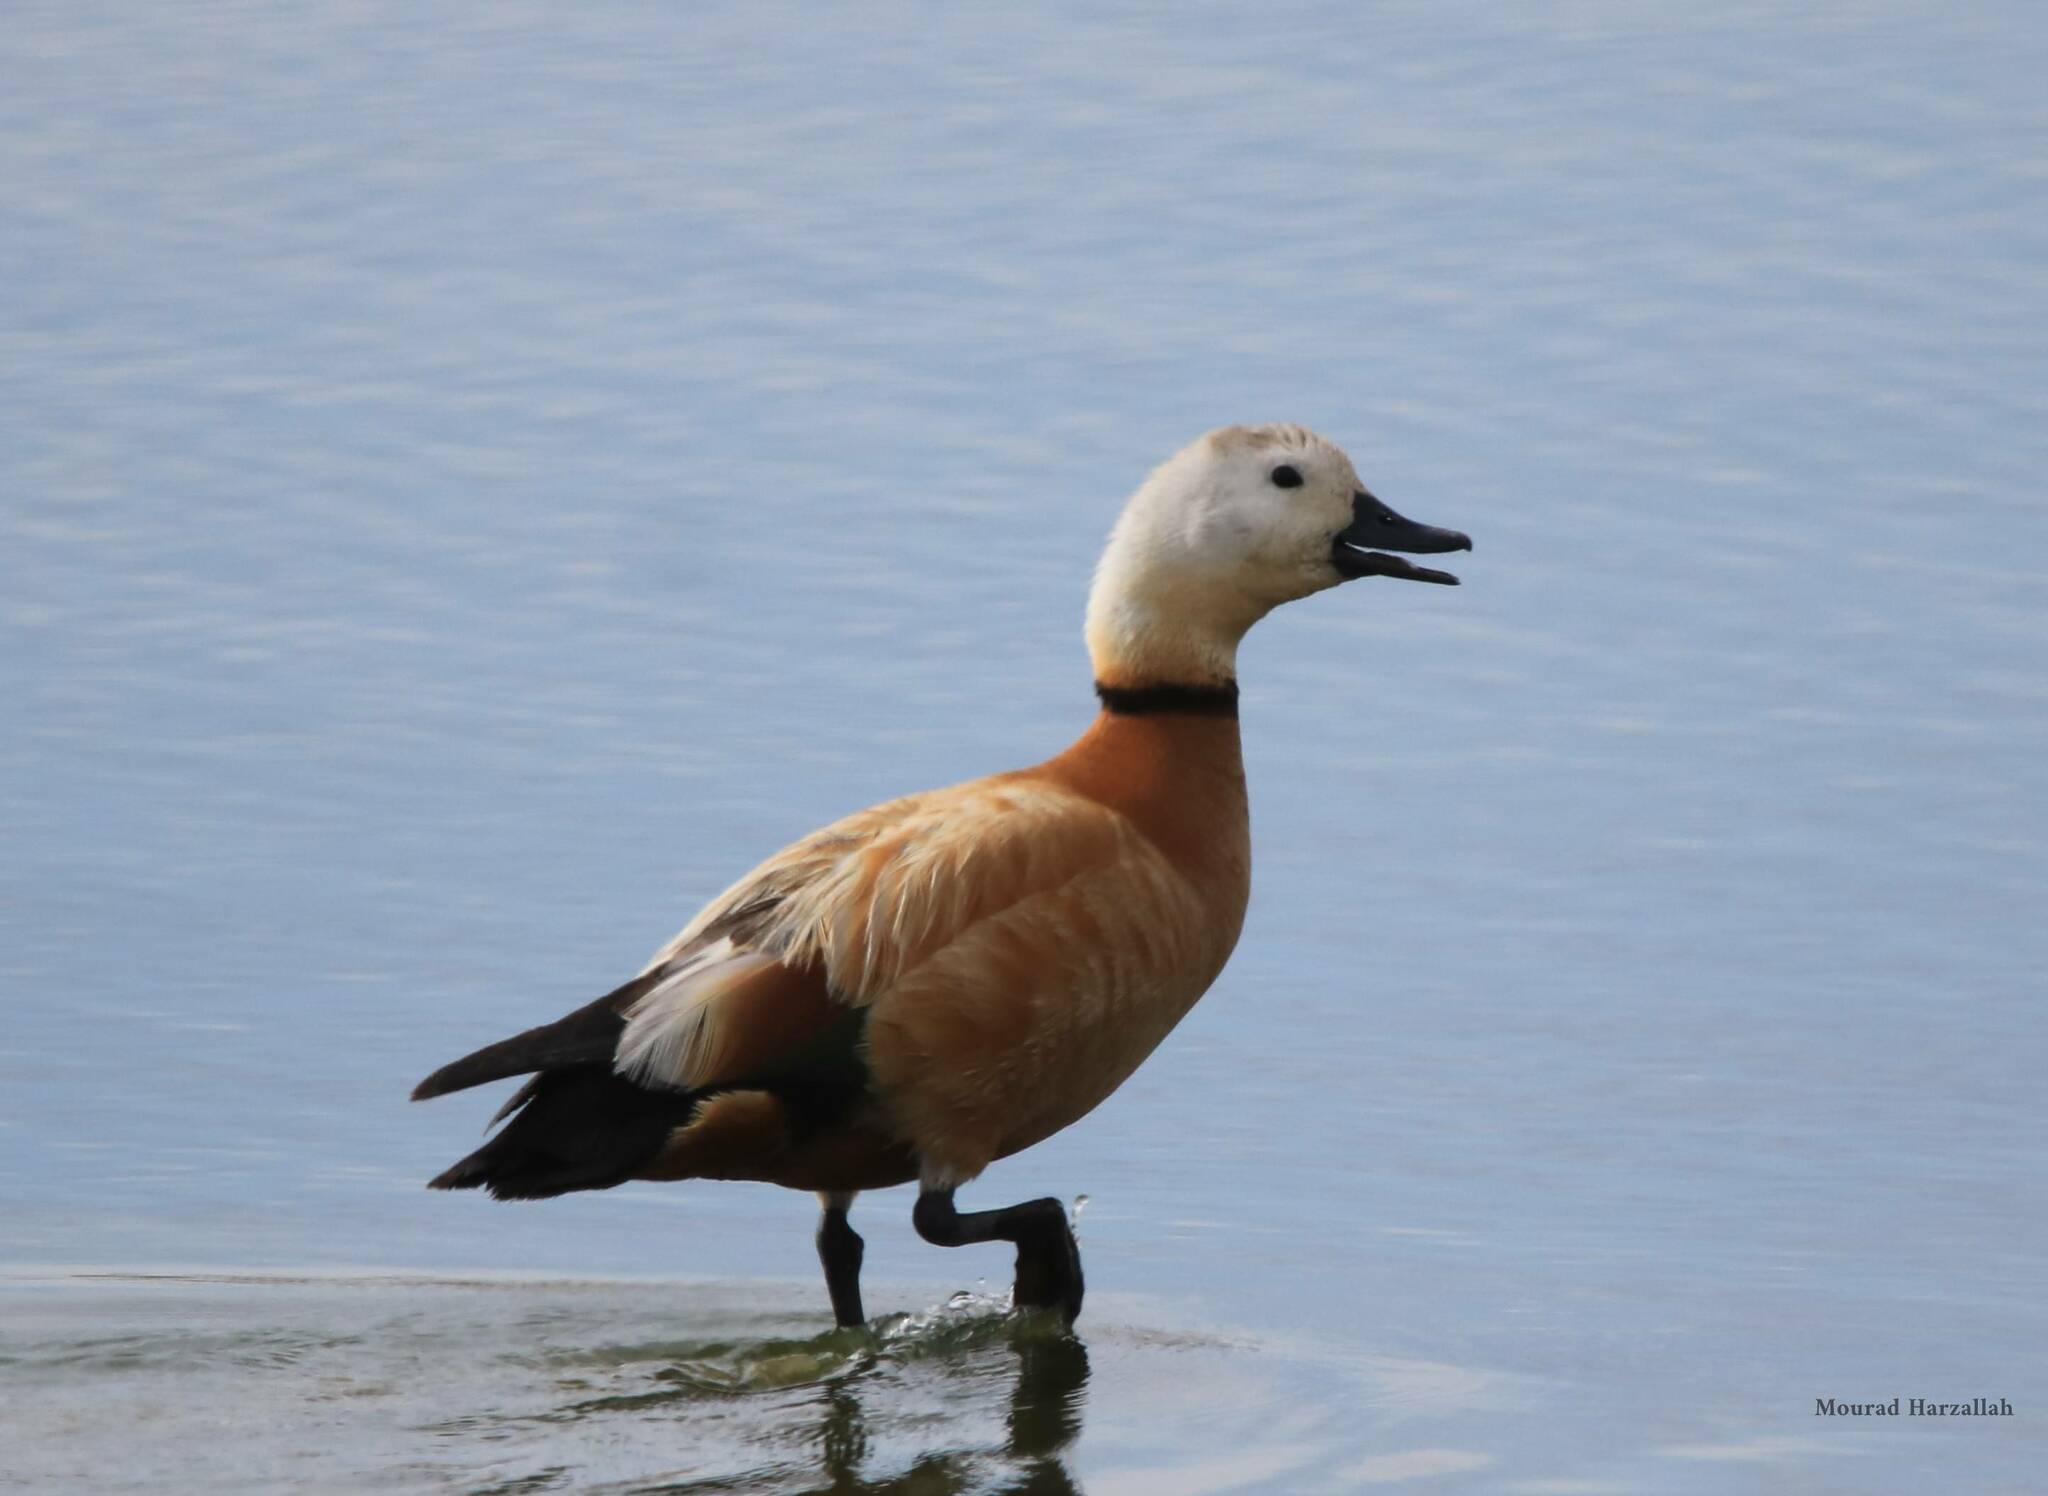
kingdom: Animalia
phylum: Chordata
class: Aves
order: Anseriformes
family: Anatidae
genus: Tadorna
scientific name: Tadorna ferruginea
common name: Ruddy shelduck
